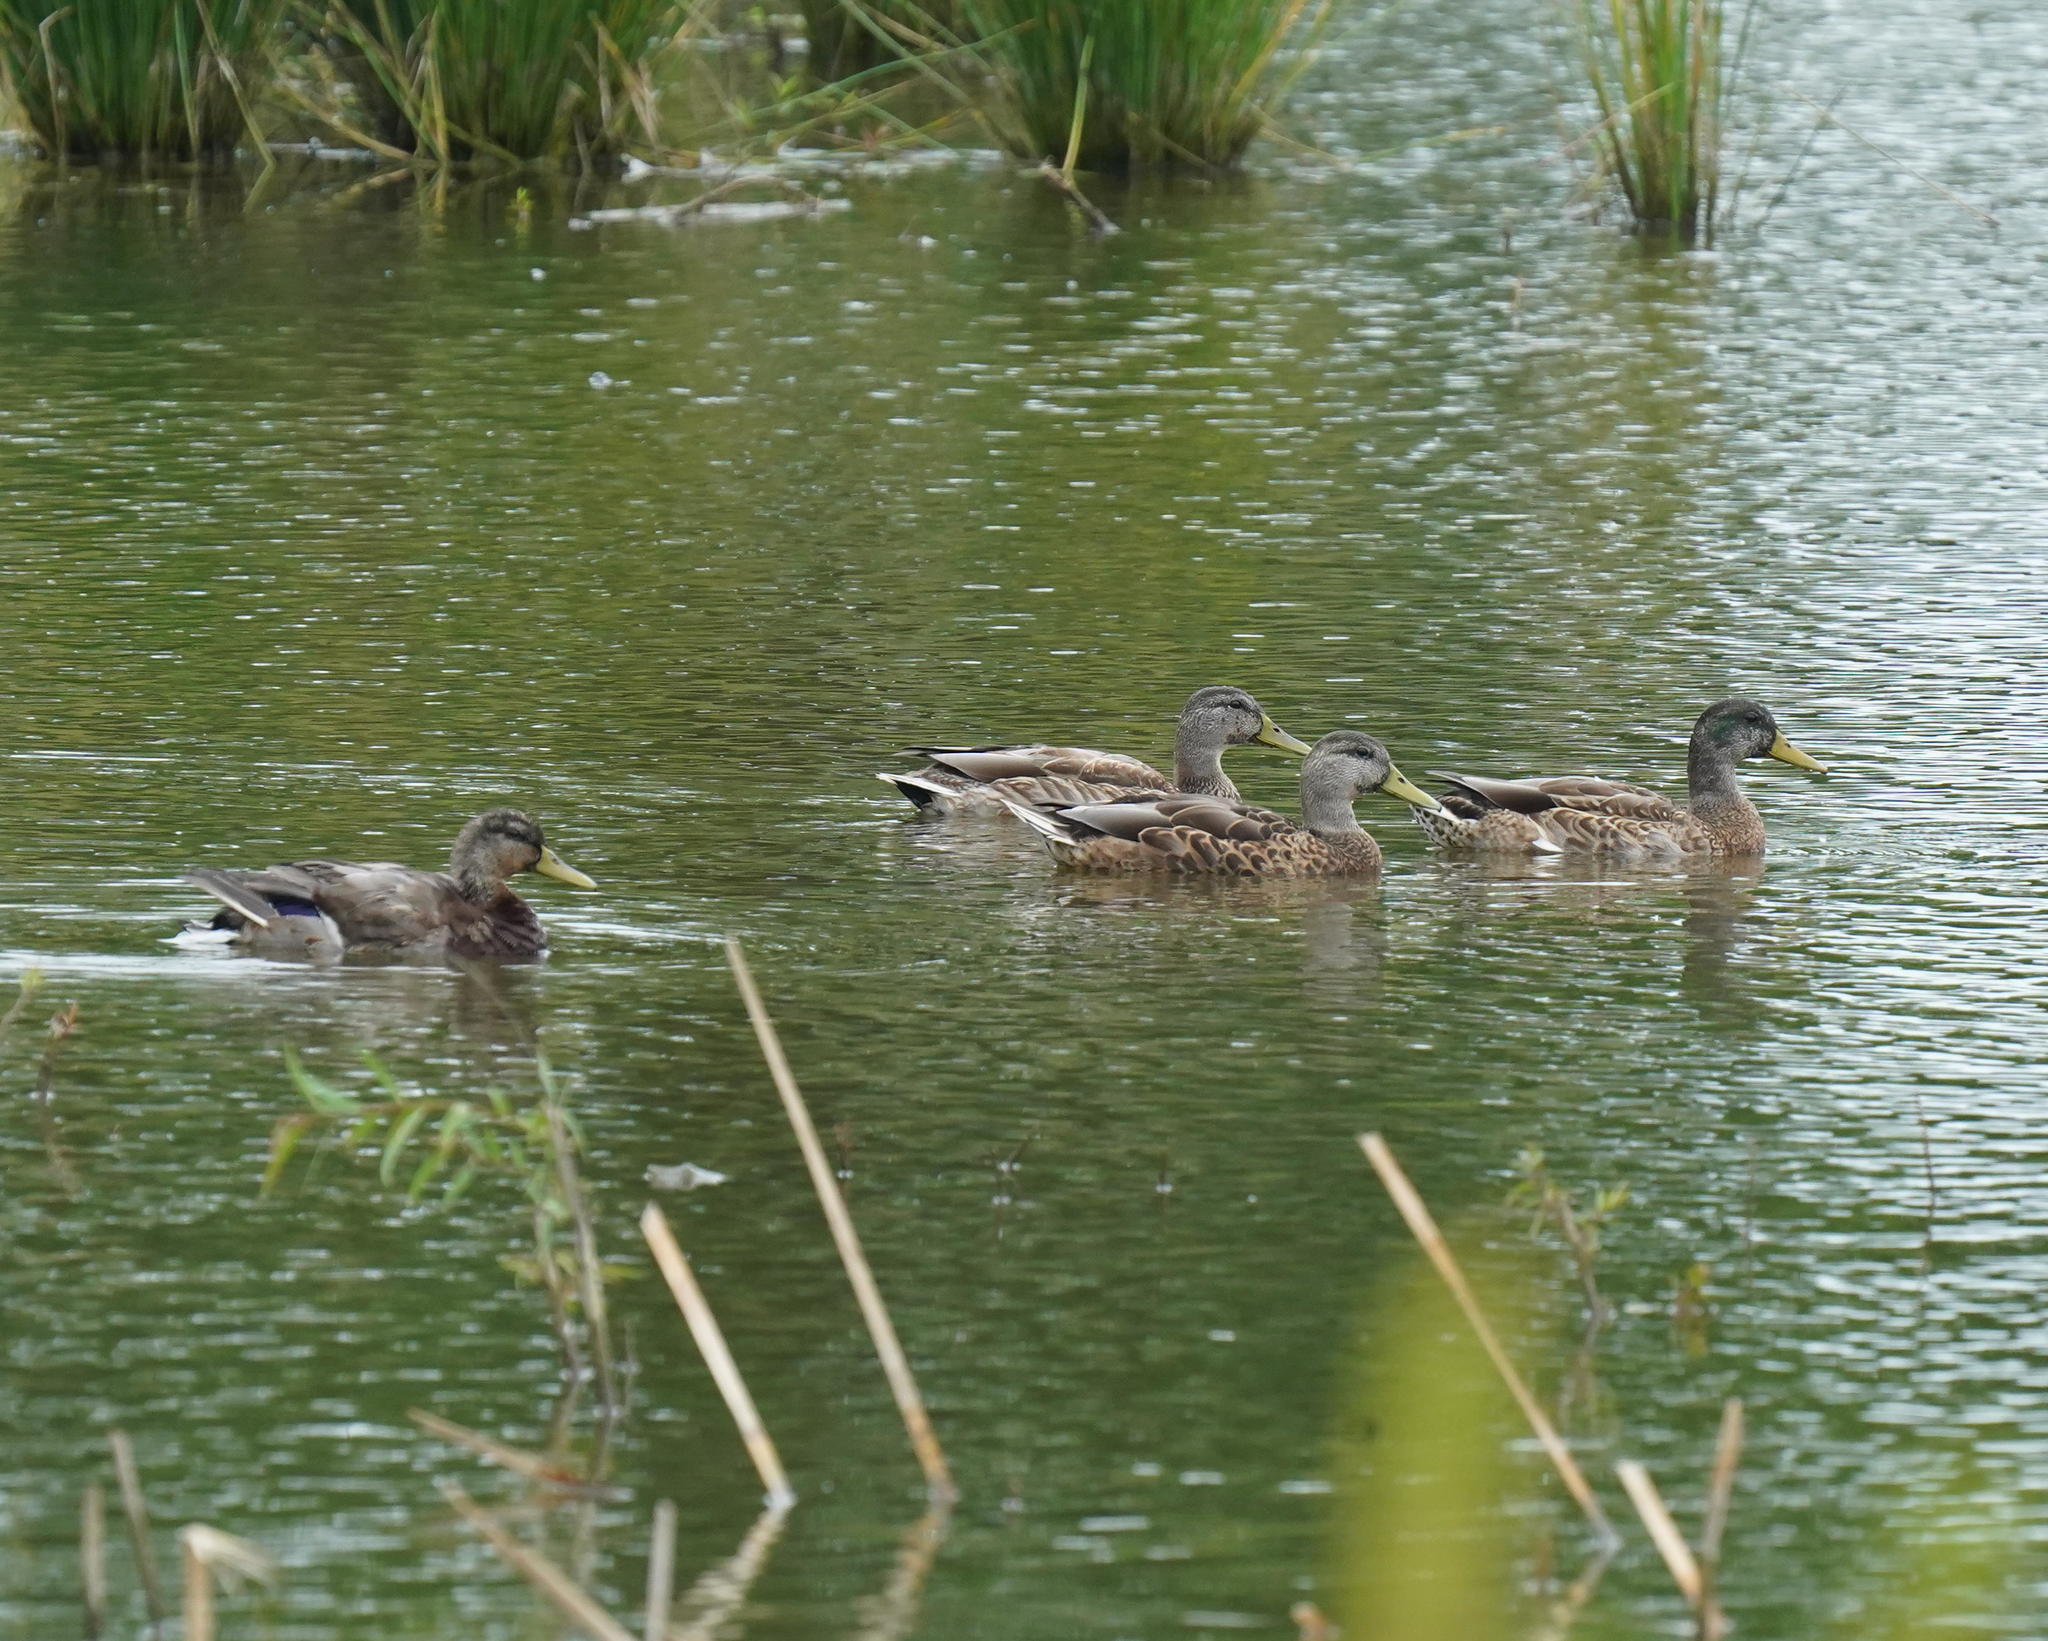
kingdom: Animalia
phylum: Chordata
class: Aves
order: Anseriformes
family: Anatidae
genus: Anas
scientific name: Anas platyrhynchos
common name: Mallard
